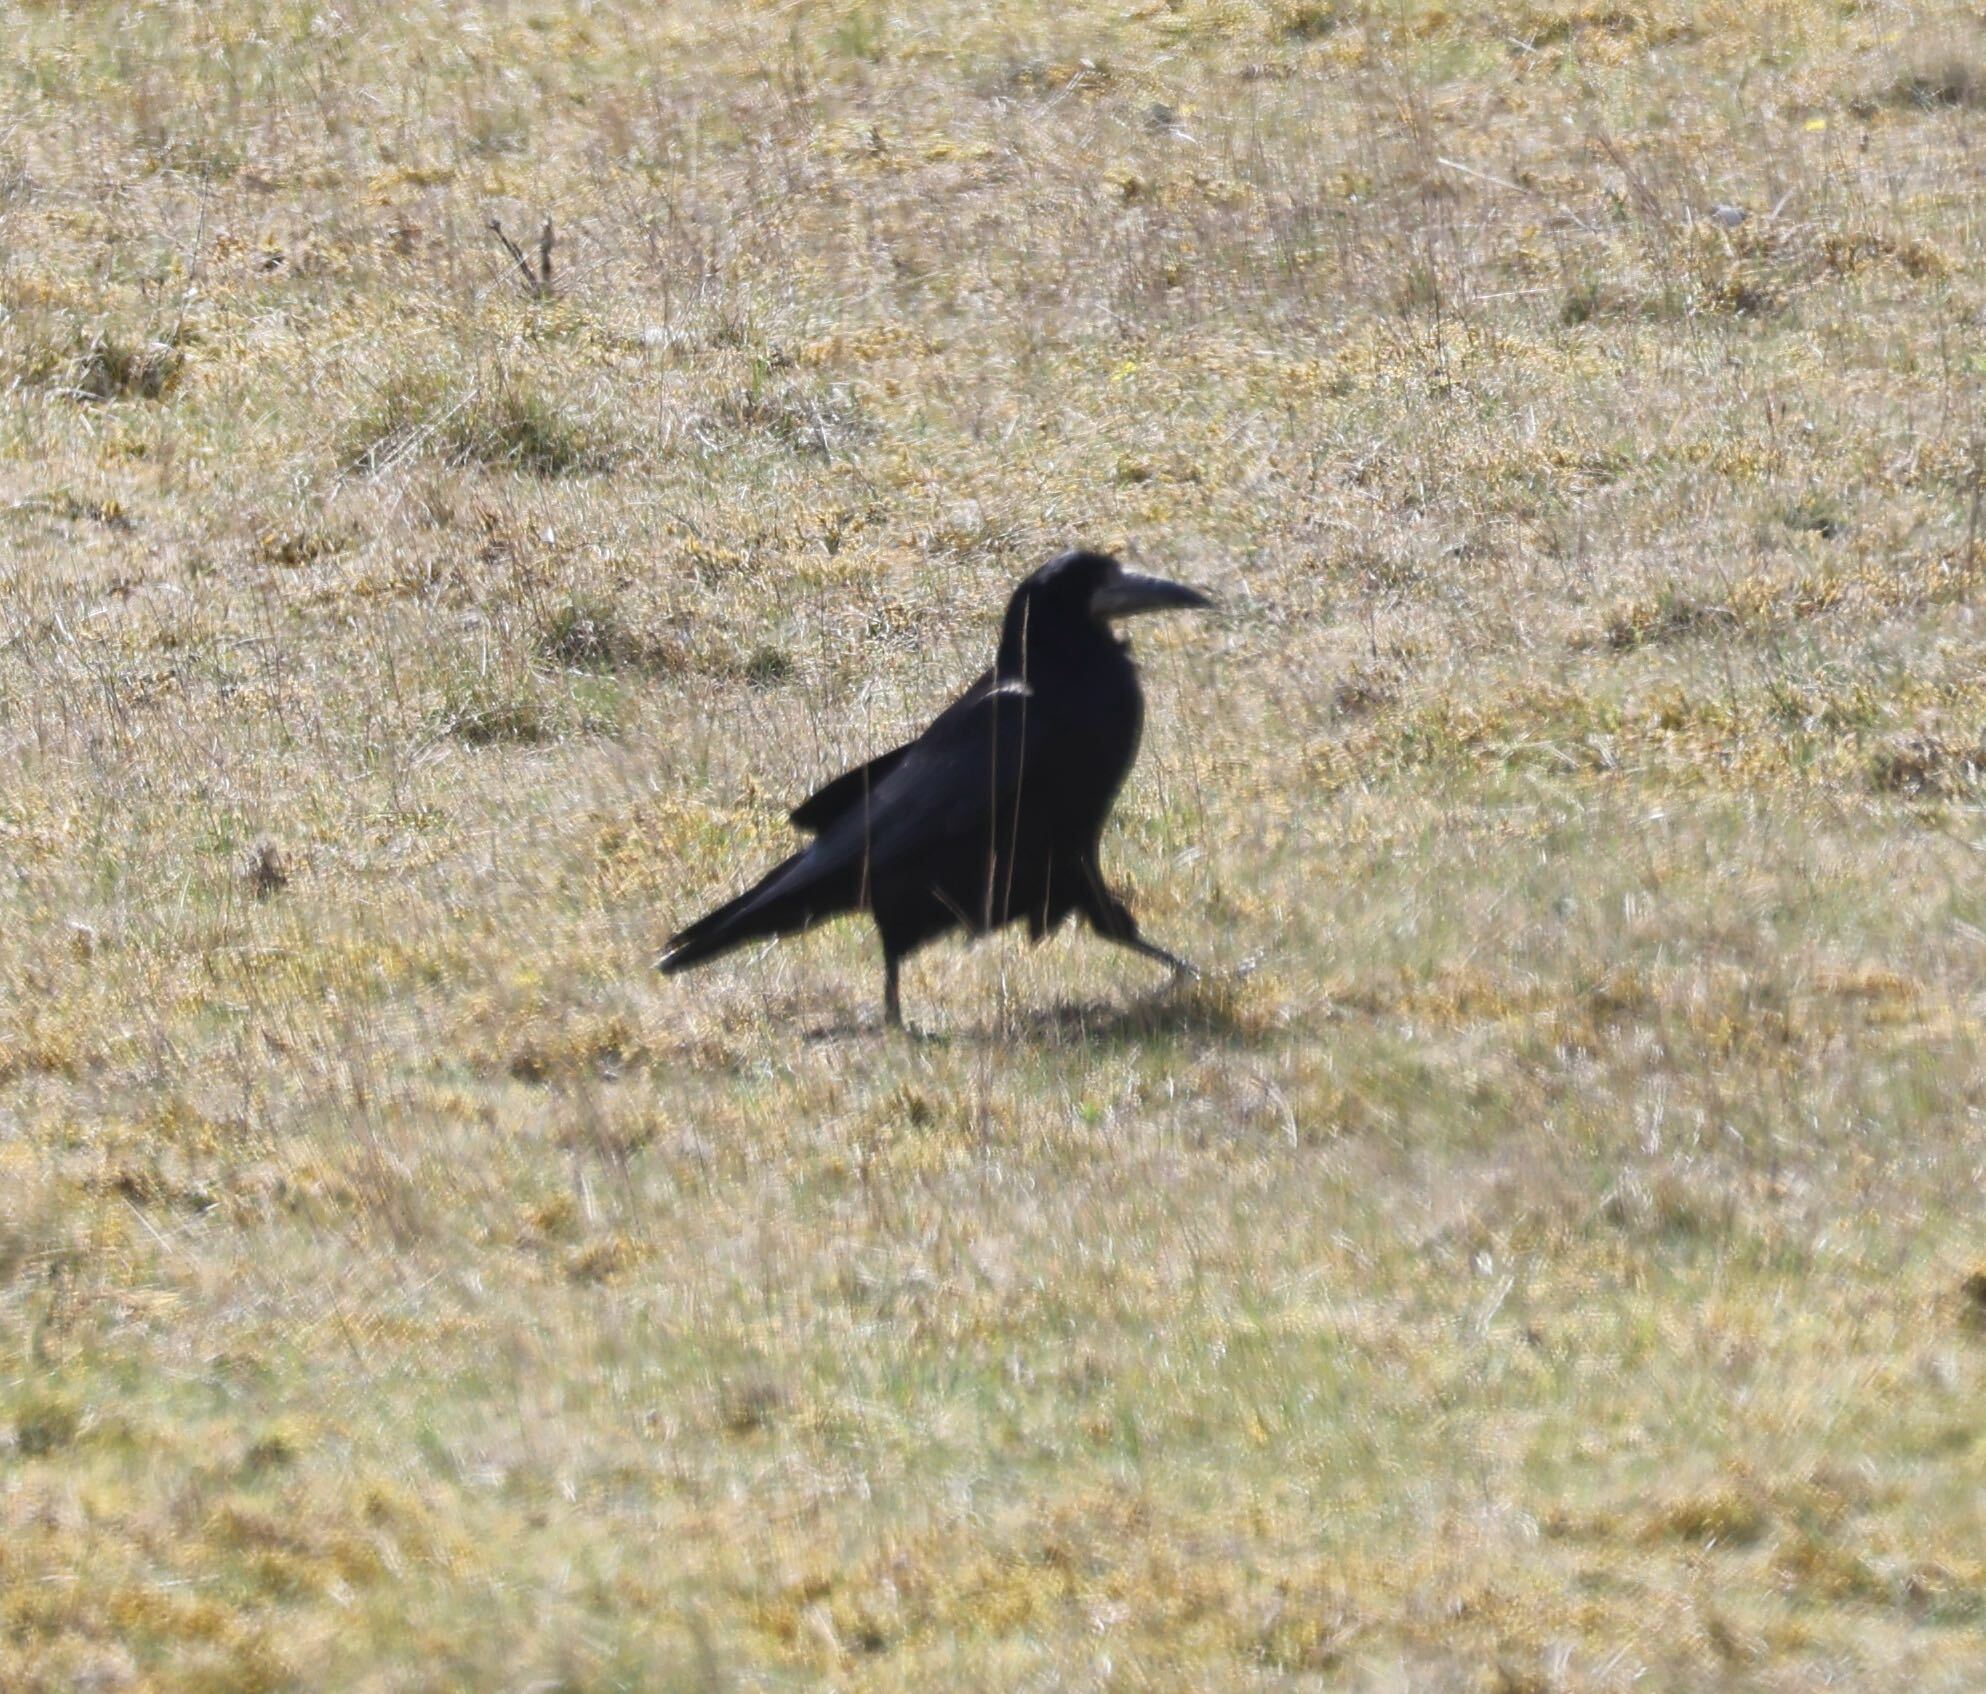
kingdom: Animalia
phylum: Chordata
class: Aves
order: Passeriformes
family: Corvidae
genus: Corvus
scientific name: Corvus frugilegus
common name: Rook
